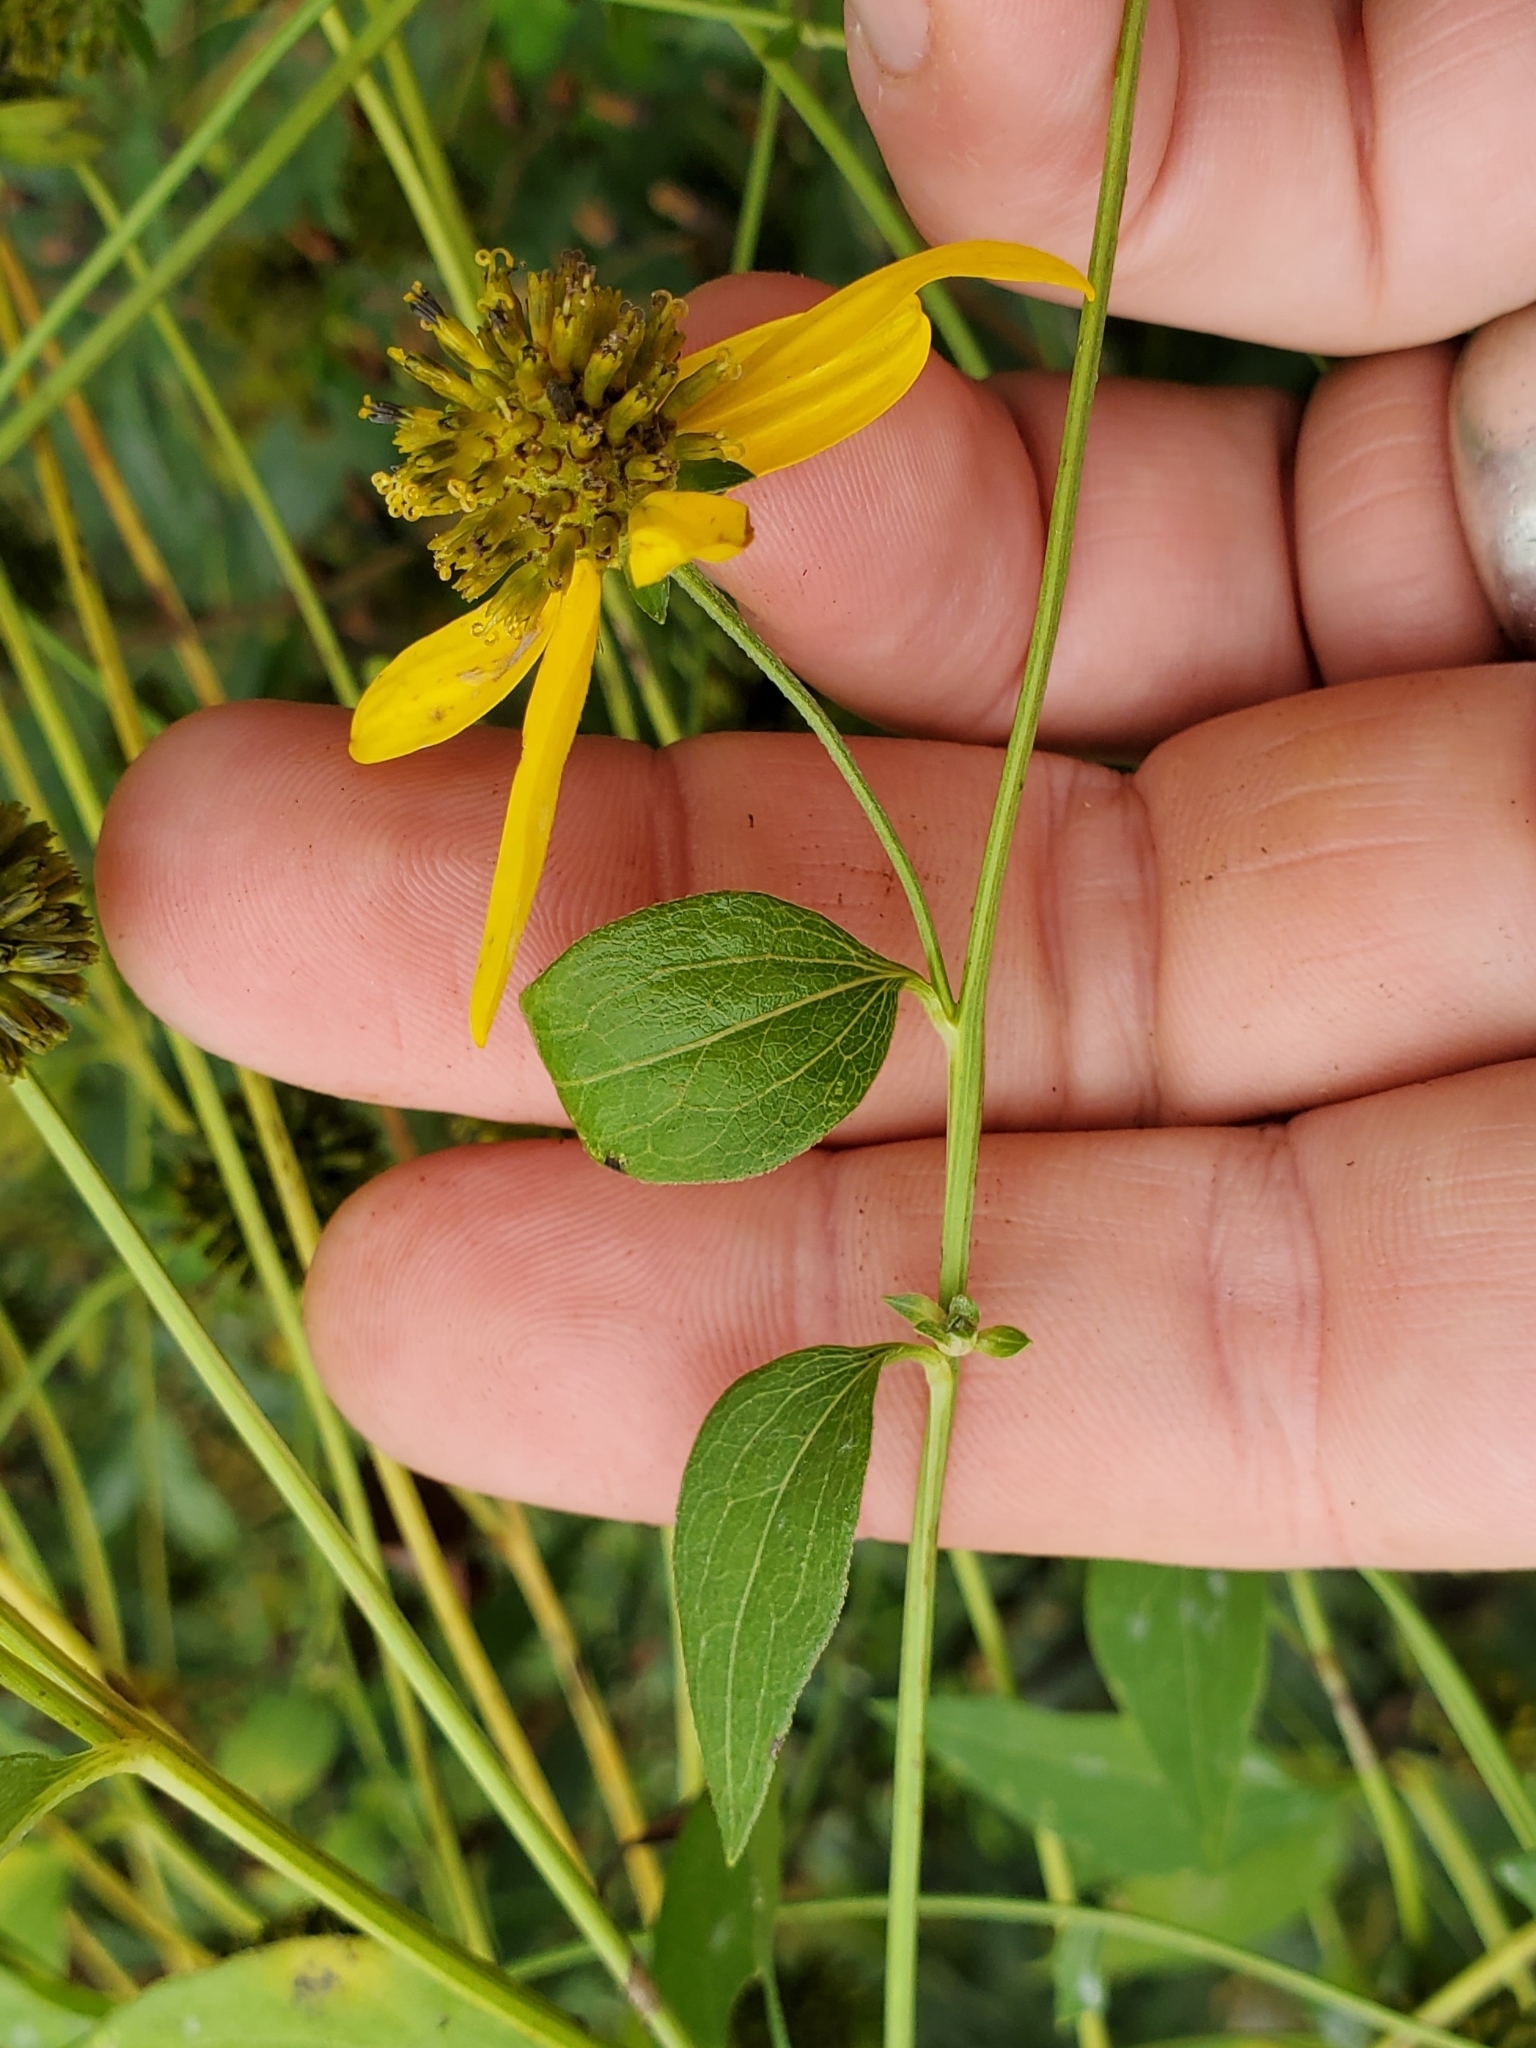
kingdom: Plantae
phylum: Tracheophyta
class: Magnoliopsida
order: Asterales
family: Asteraceae
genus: Rudbeckia
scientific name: Rudbeckia laciniata
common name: Coneflower
